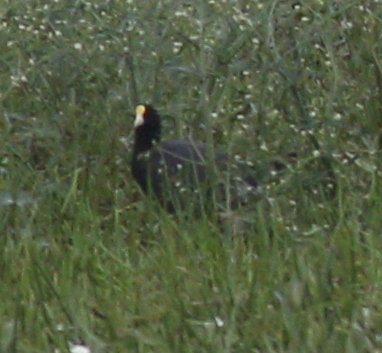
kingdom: Animalia
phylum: Chordata
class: Aves
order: Gruiformes
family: Rallidae
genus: Fulica
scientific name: Fulica leucoptera
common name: White-winged coot
